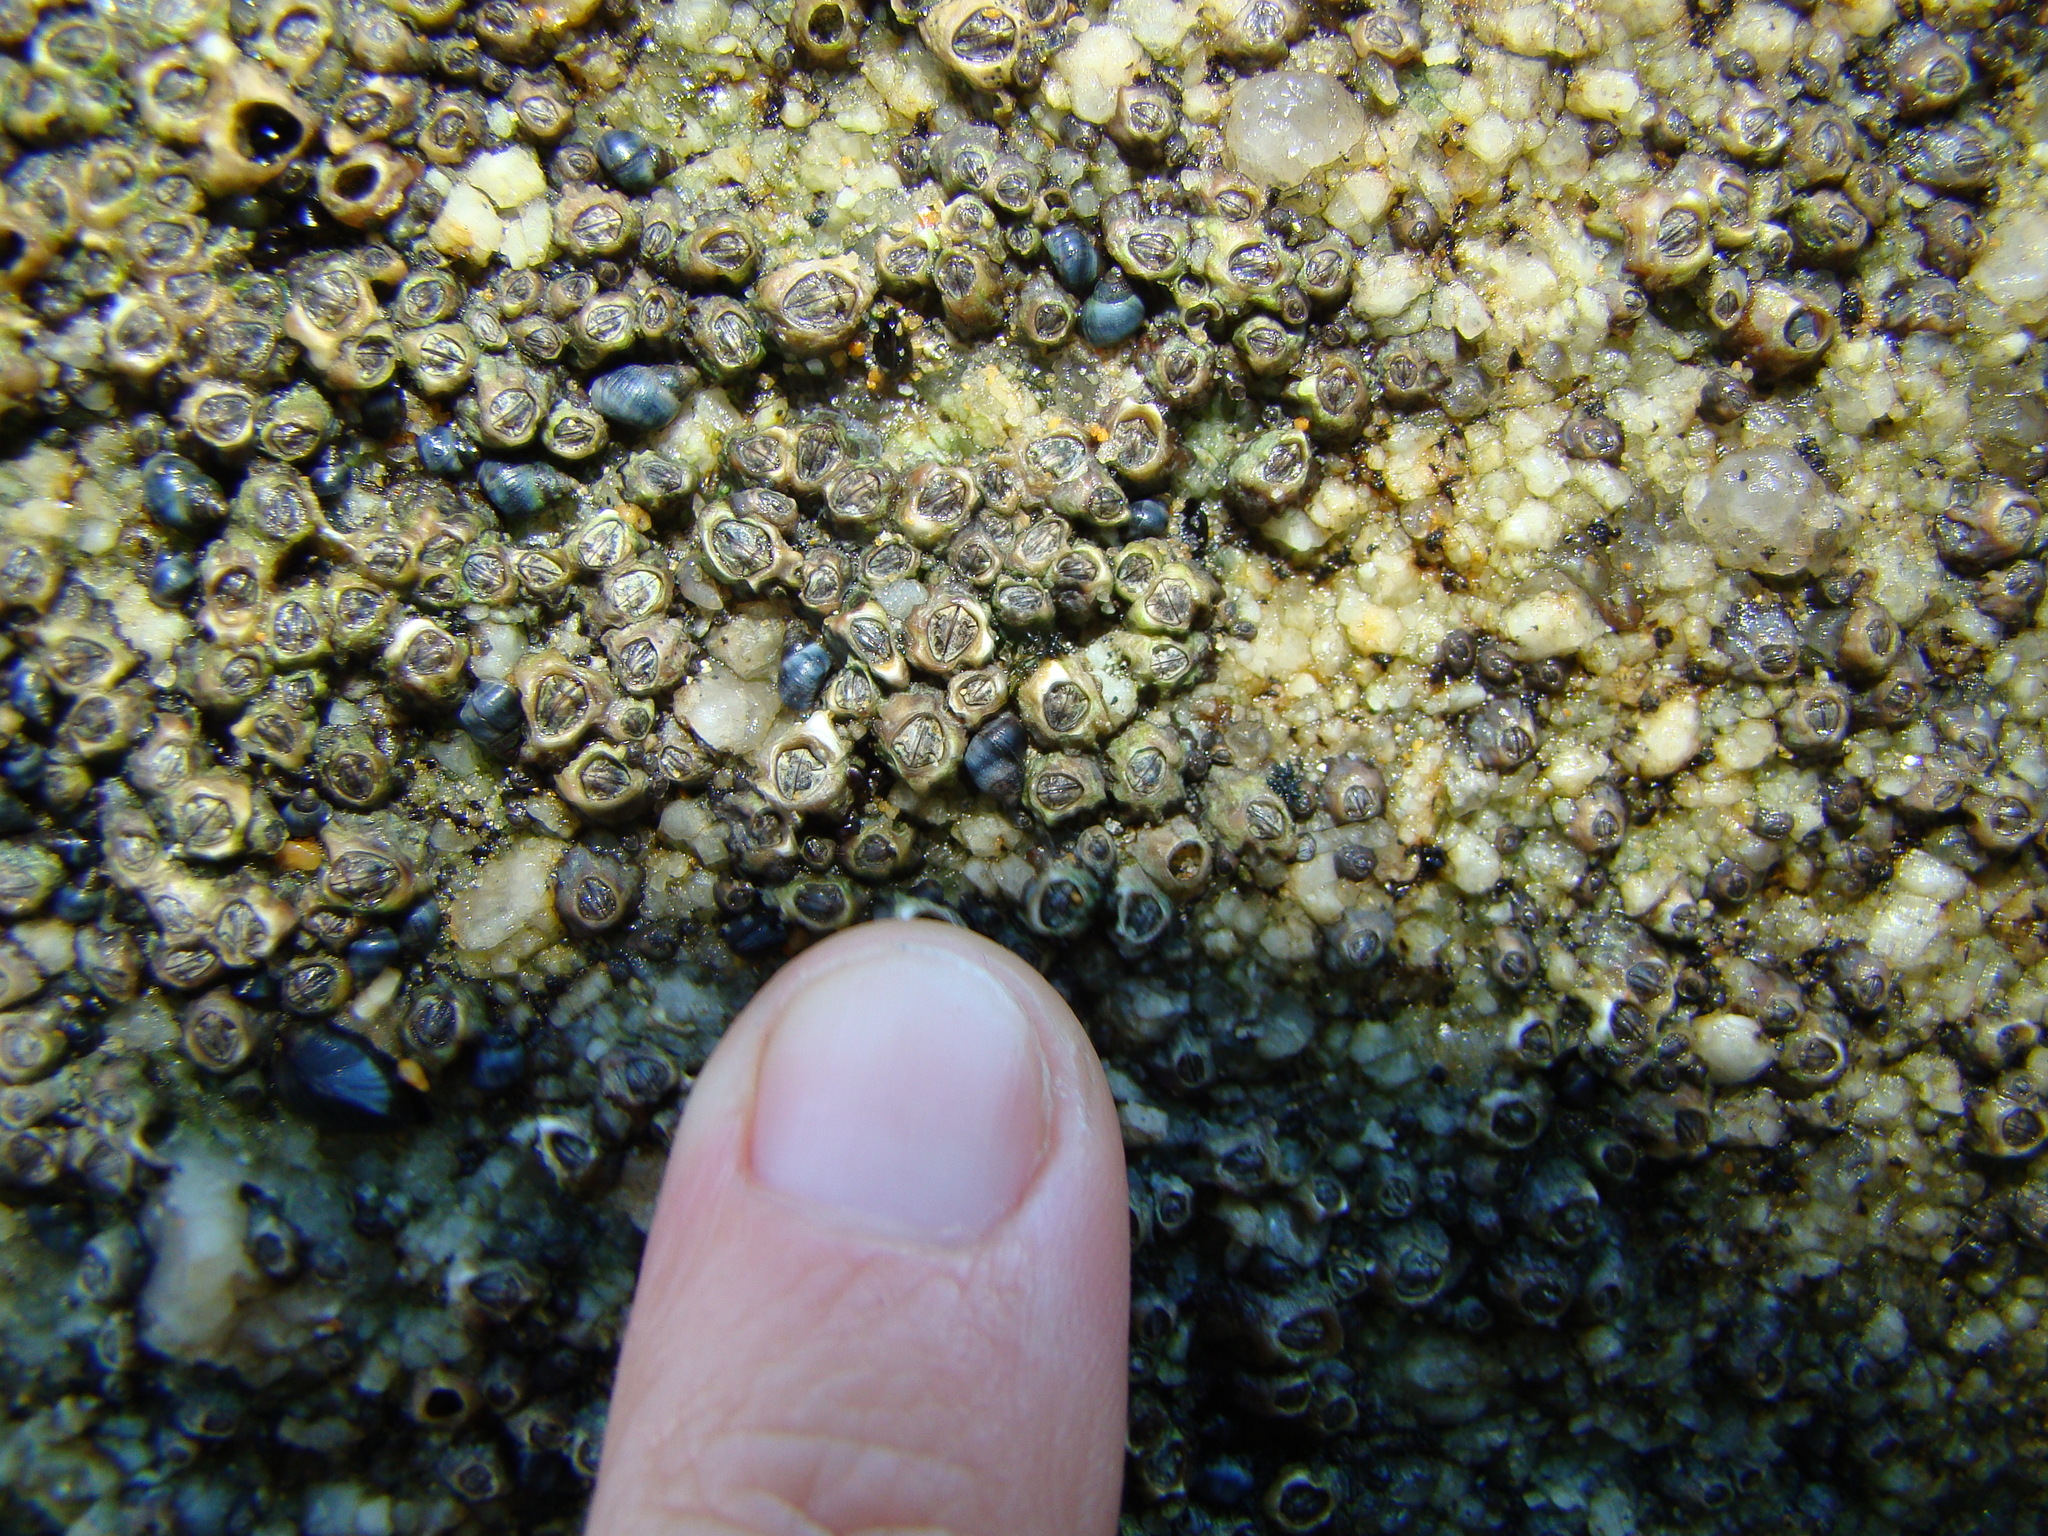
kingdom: Animalia
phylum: Mollusca
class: Gastropoda
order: Littorinimorpha
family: Littorinidae
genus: Austrolittorina
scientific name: Austrolittorina antipodum
